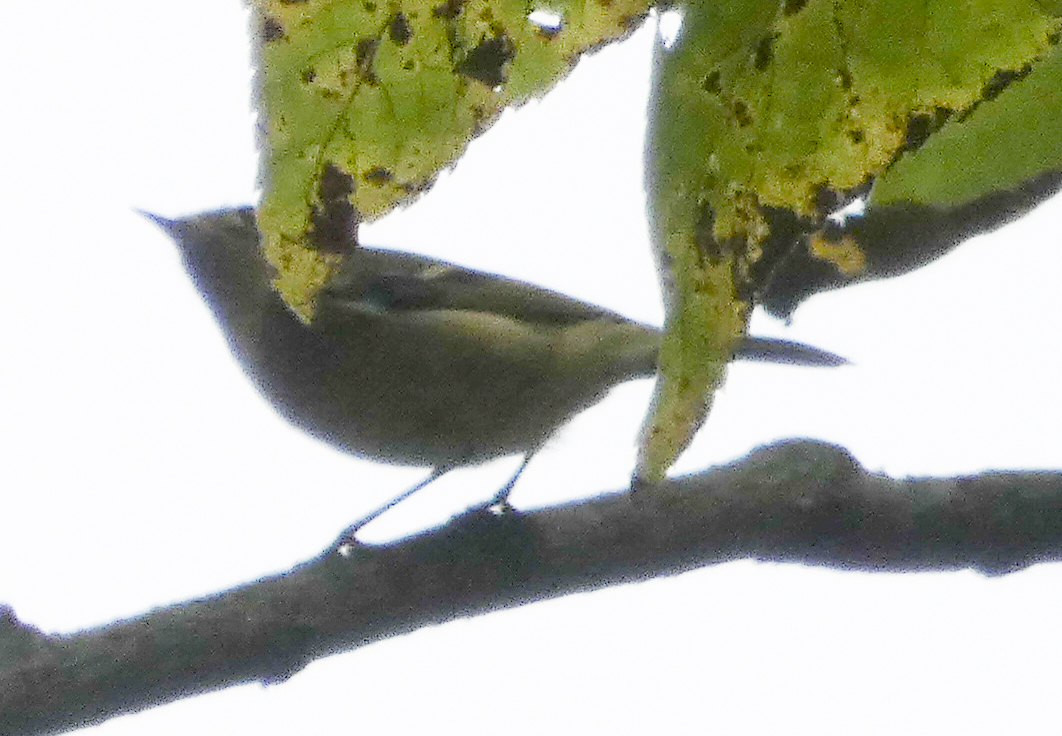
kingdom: Animalia
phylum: Chordata
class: Aves
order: Passeriformes
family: Regulidae
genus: Regulus
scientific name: Regulus calendula
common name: Ruby-crowned kinglet
